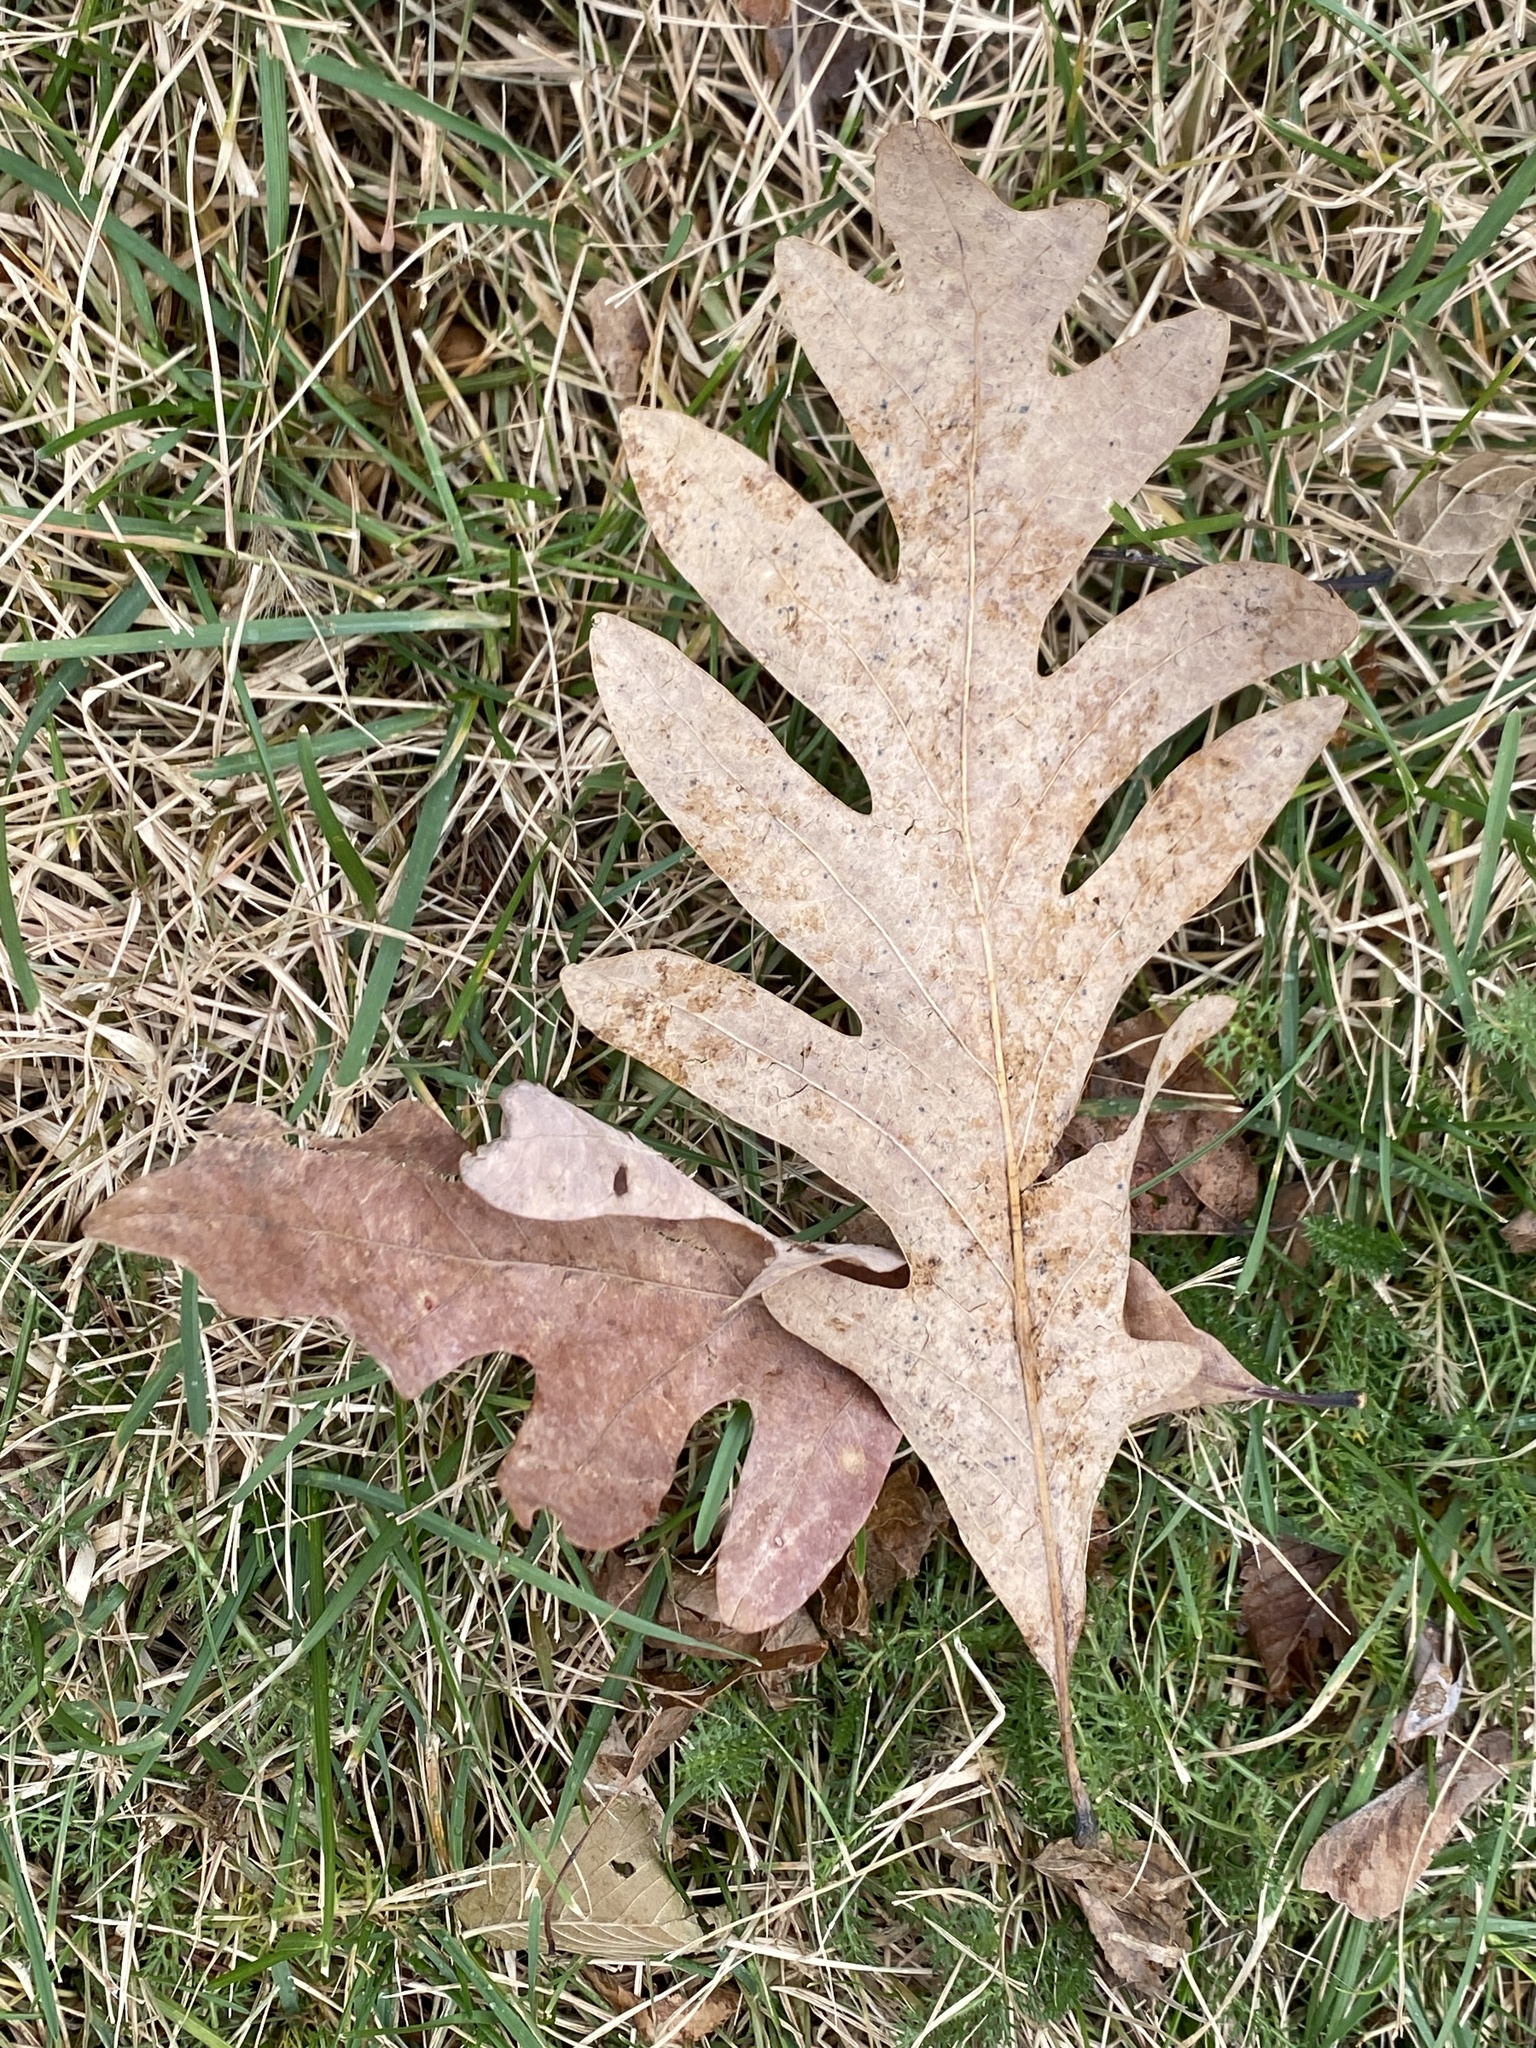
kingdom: Plantae
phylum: Tracheophyta
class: Magnoliopsida
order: Fagales
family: Fagaceae
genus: Quercus
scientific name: Quercus alba
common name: White oak
